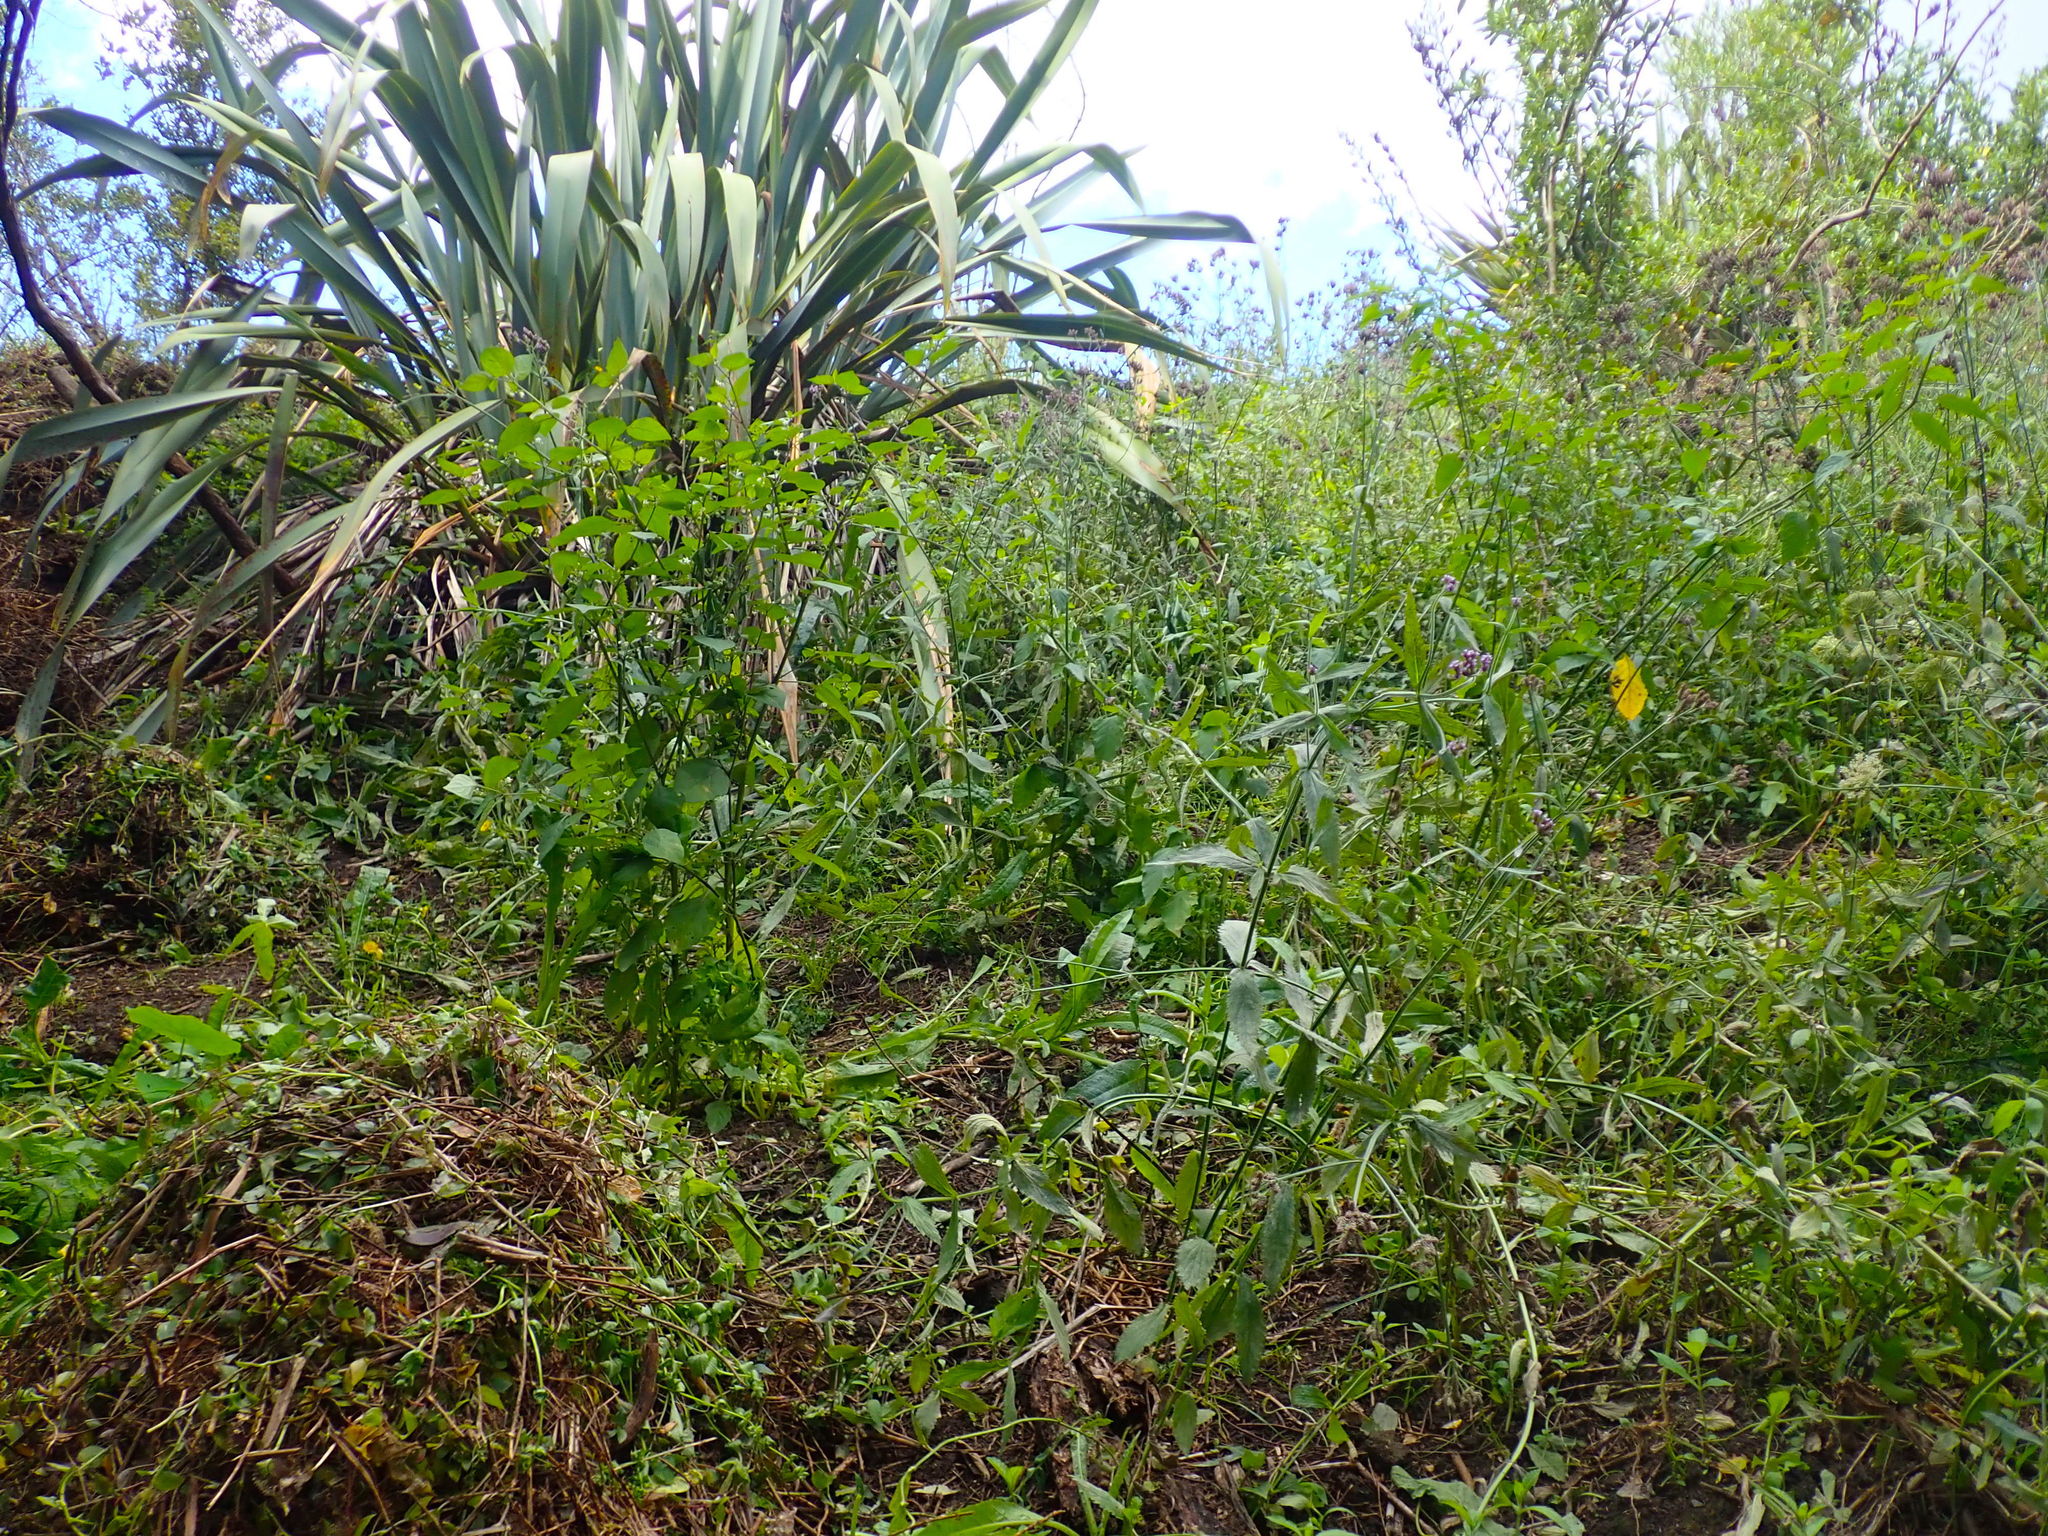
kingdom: Plantae
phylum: Tracheophyta
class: Liliopsida
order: Commelinales
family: Commelinaceae
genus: Tradescantia
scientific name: Tradescantia fluminensis
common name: Wandering-jew
